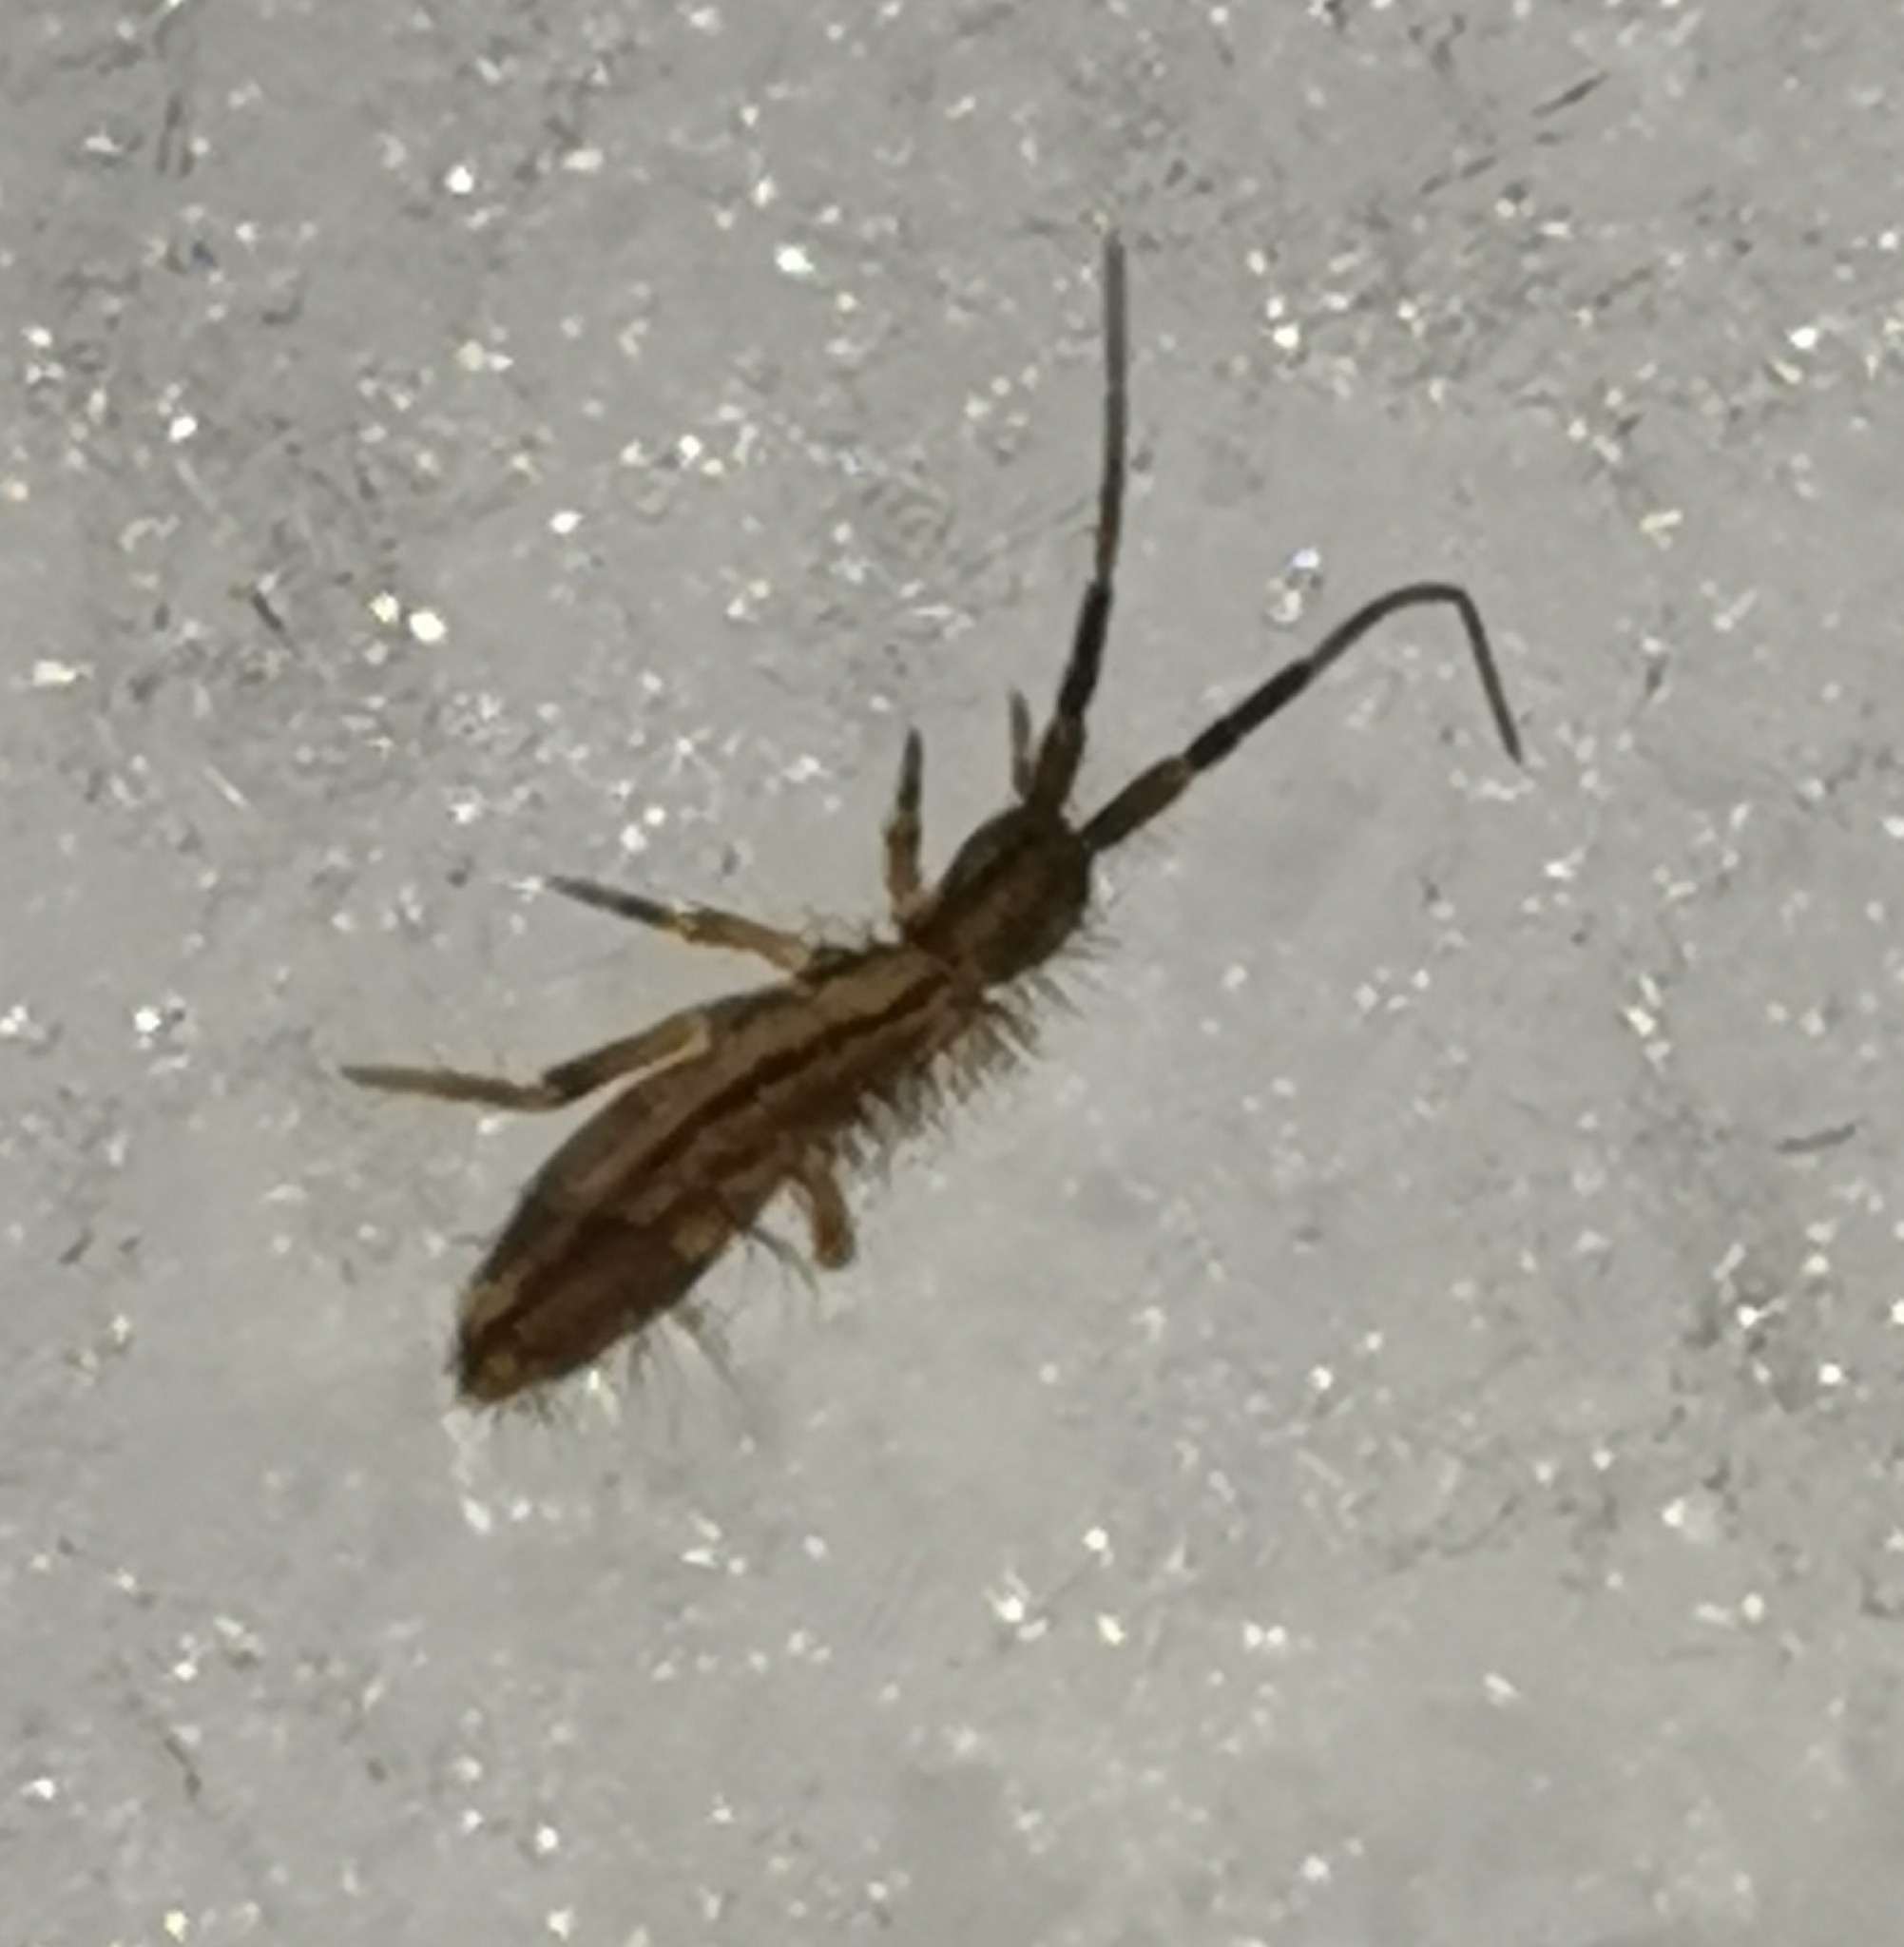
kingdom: Animalia
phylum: Arthropoda
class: Collembola
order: Entomobryomorpha
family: Entomobryidae
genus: Entomobrya
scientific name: Entomobrya nivalis
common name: Cosmopolitan springtail
